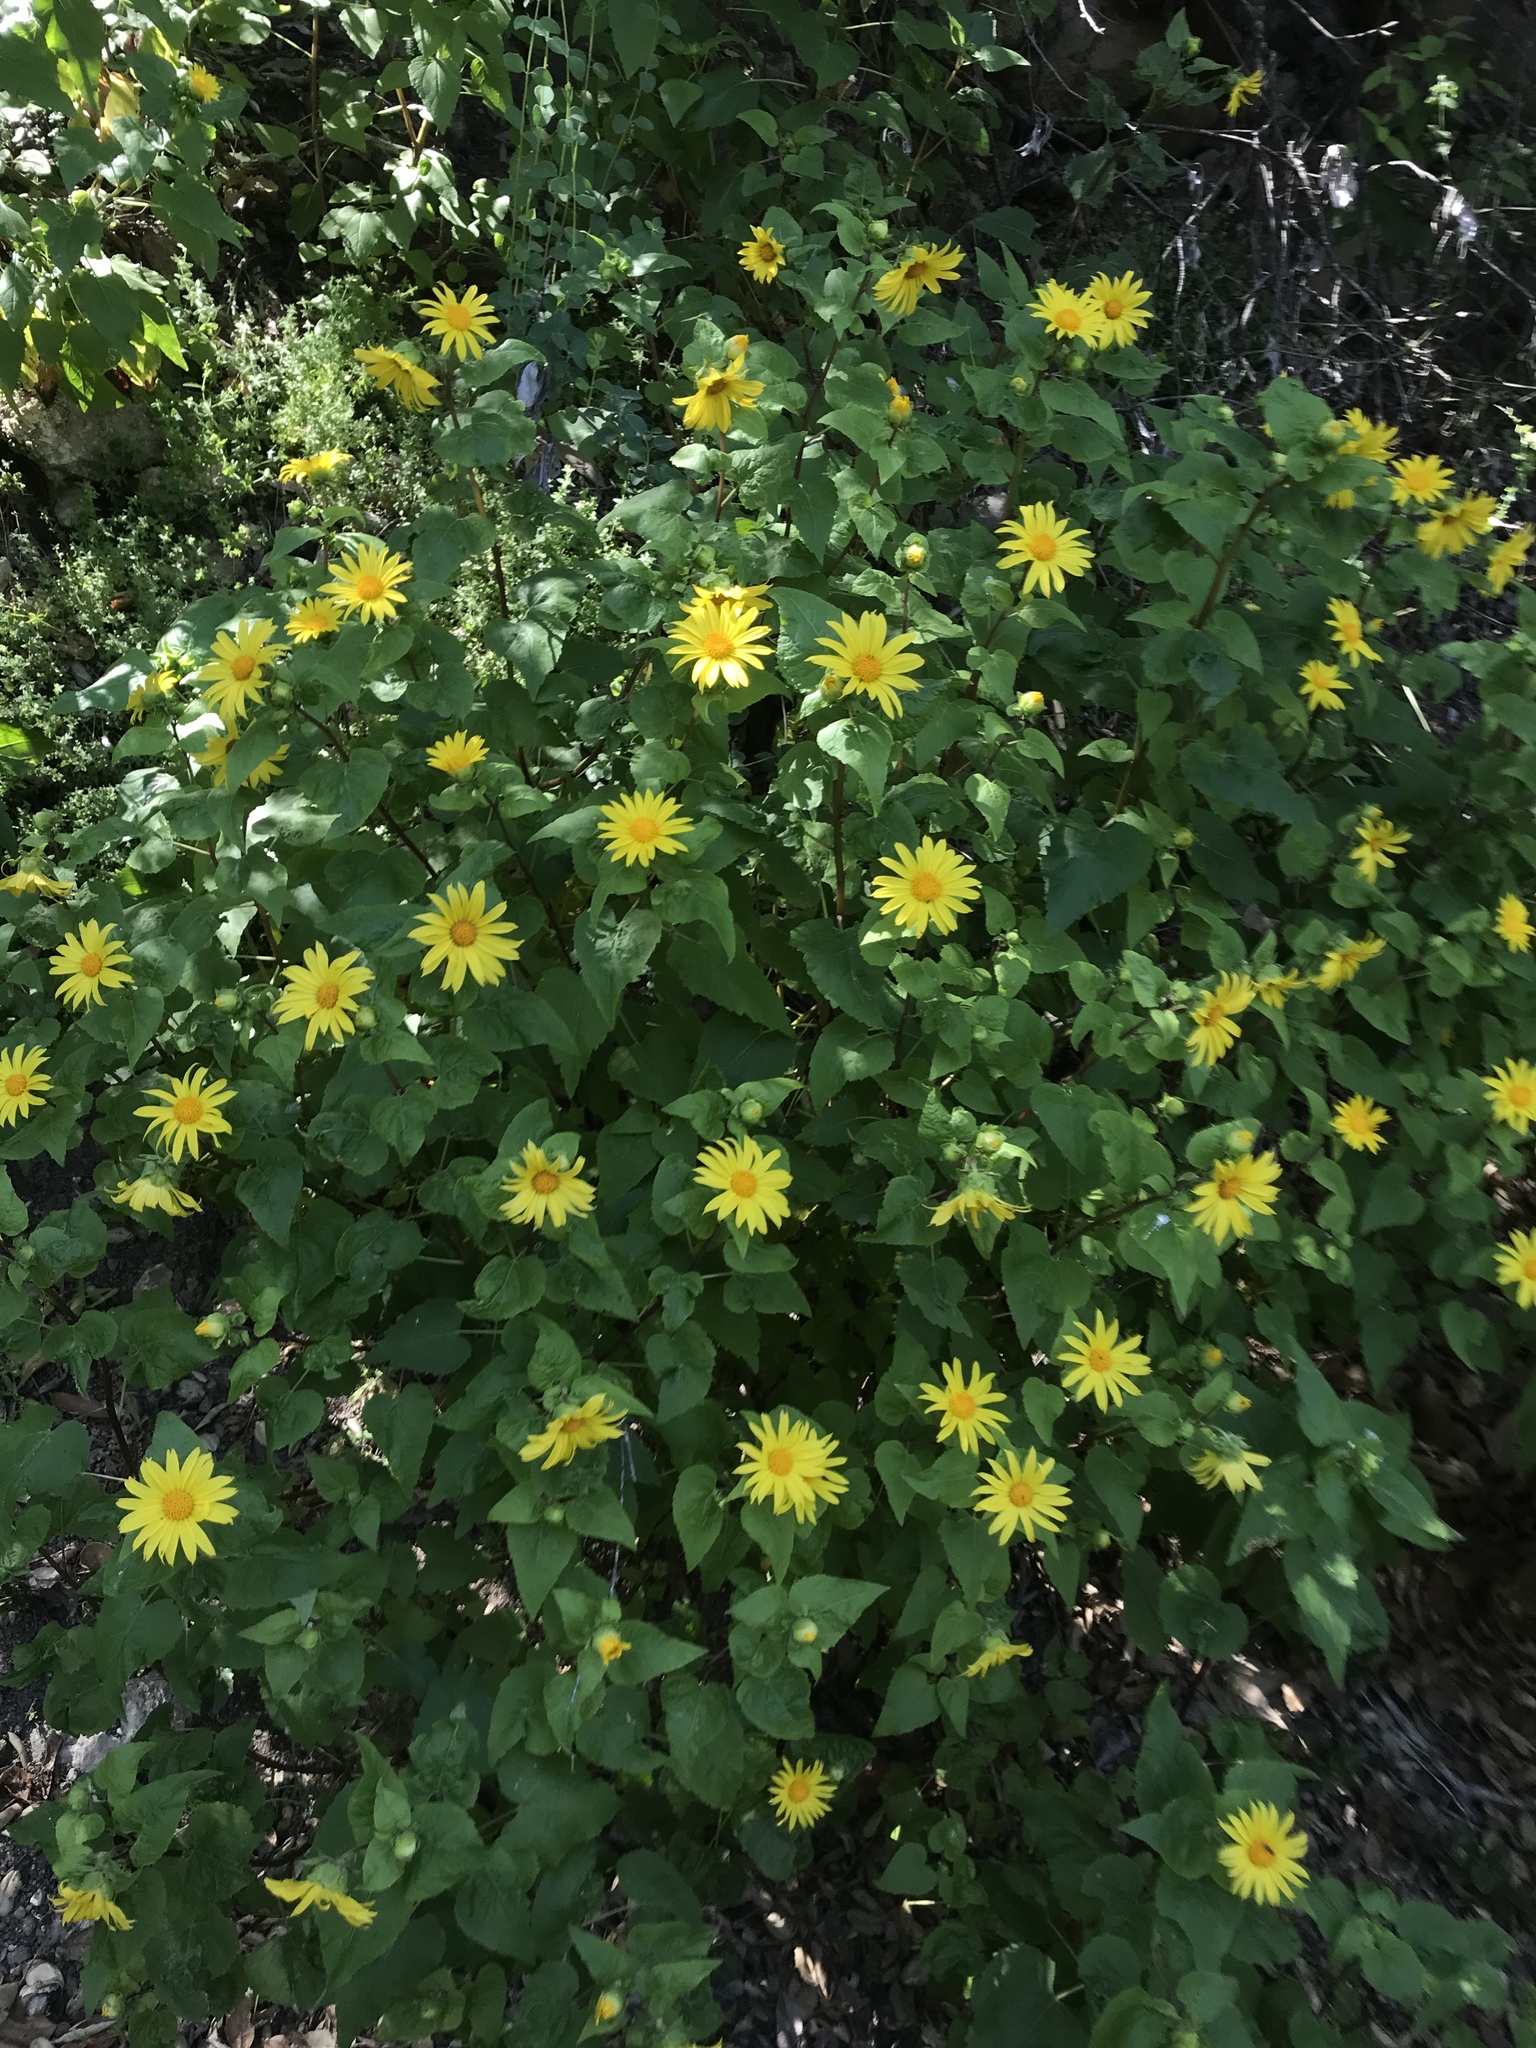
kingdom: Plantae
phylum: Tracheophyta
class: Magnoliopsida
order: Asterales
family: Asteraceae
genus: Venegasia
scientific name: Venegasia carpesioides
